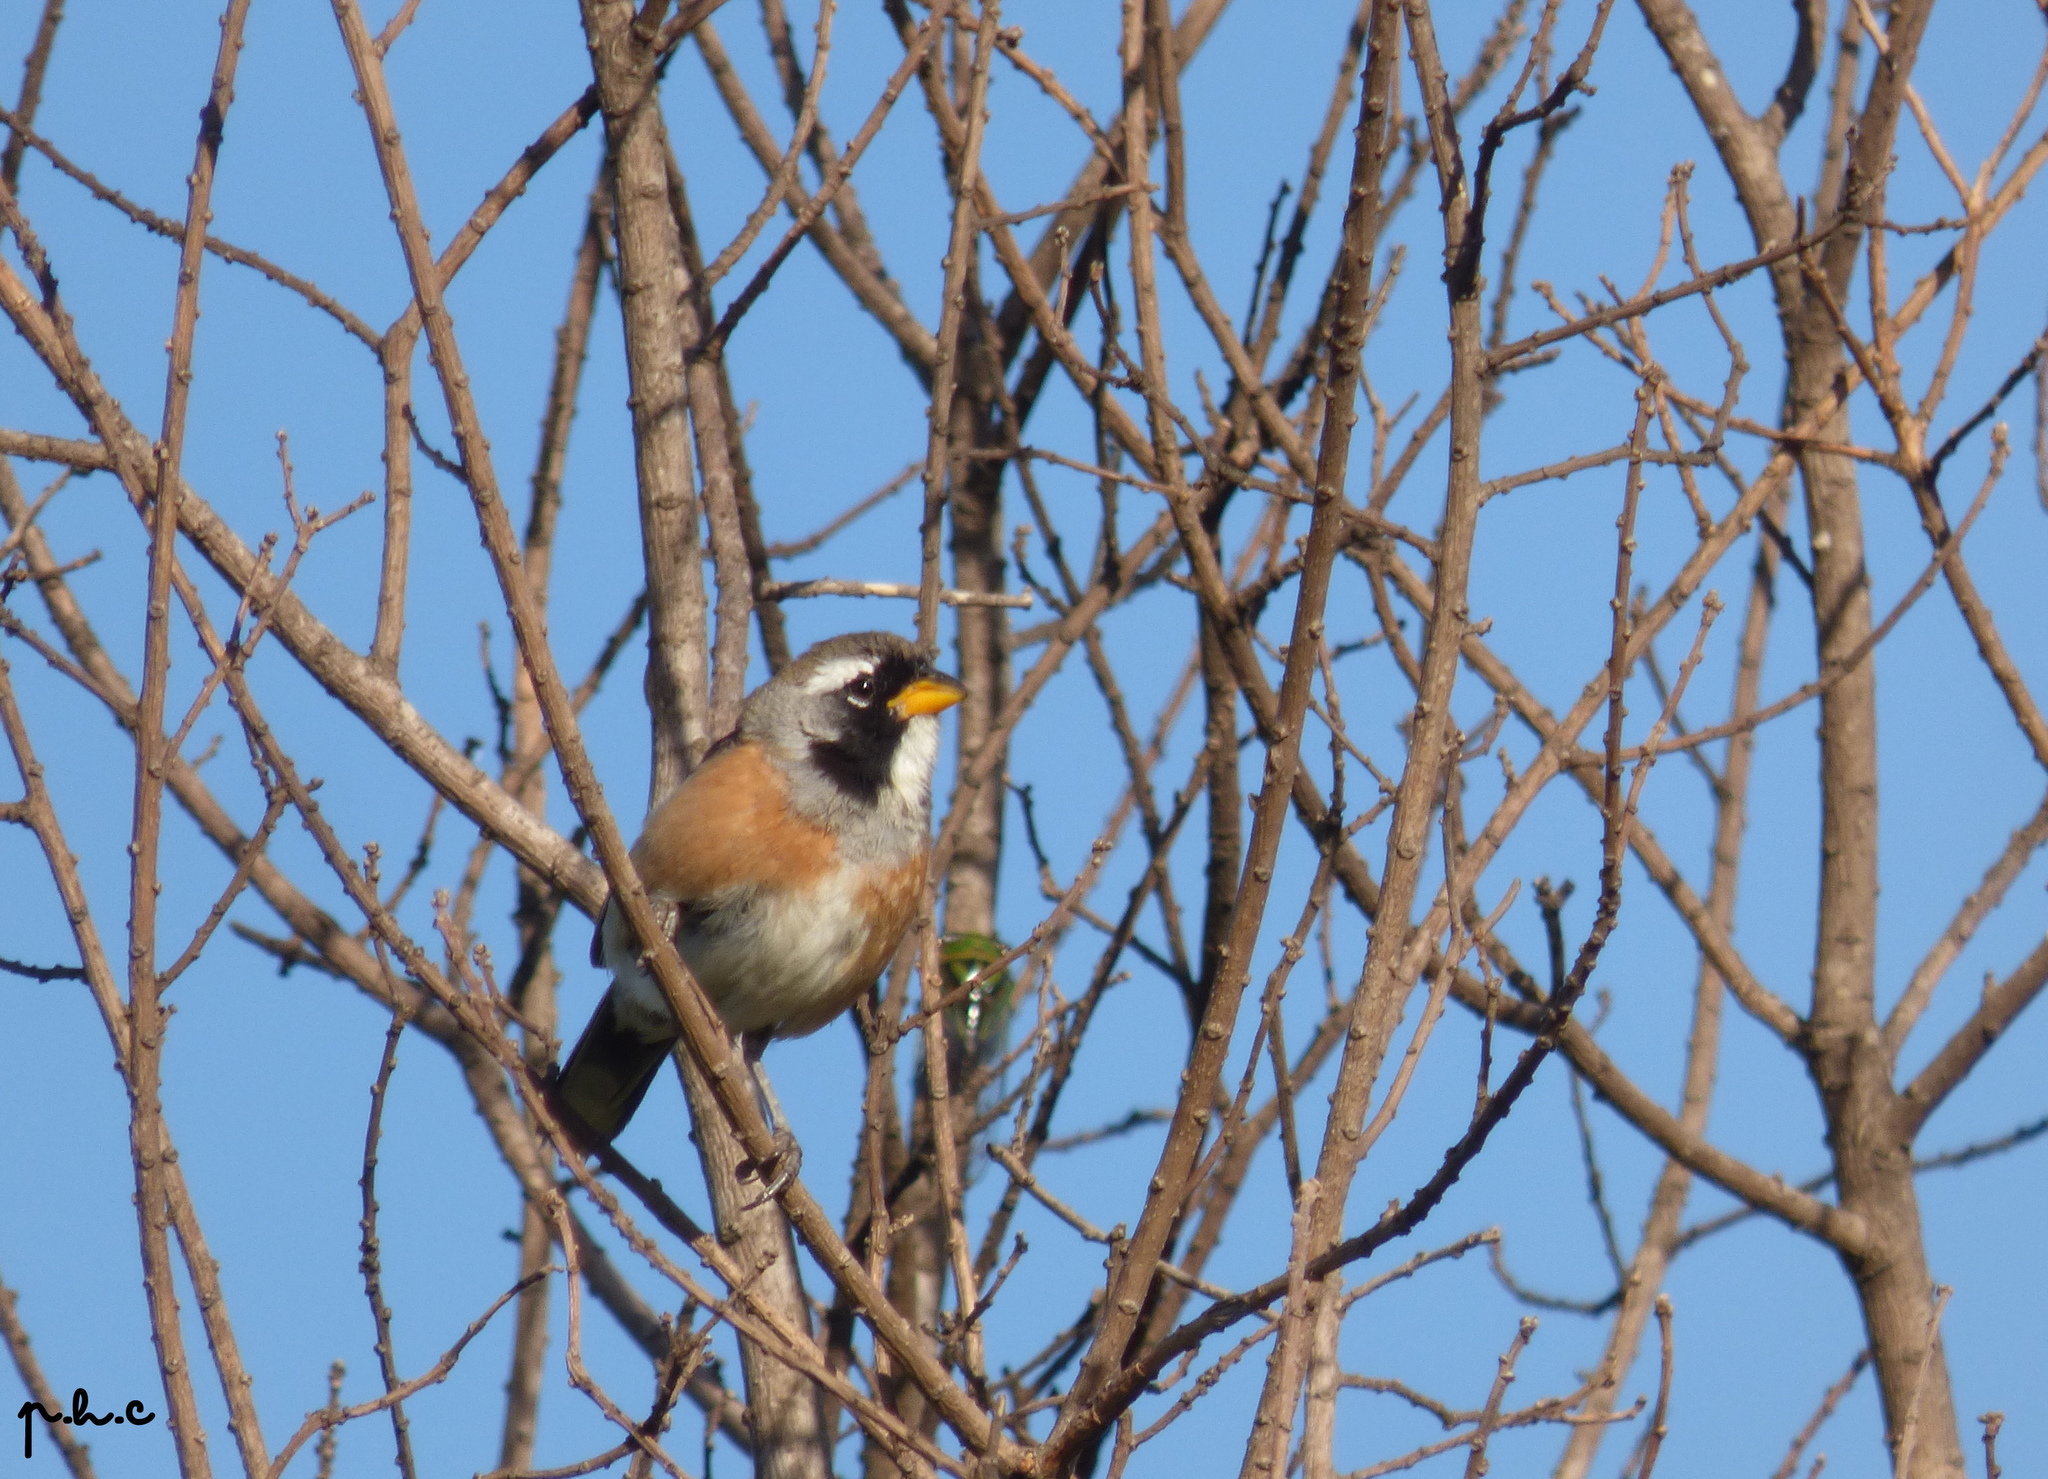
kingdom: Animalia
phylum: Chordata
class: Aves
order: Passeriformes
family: Thraupidae
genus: Saltatricula
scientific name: Saltatricula multicolor
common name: Many-colored chaco finch
